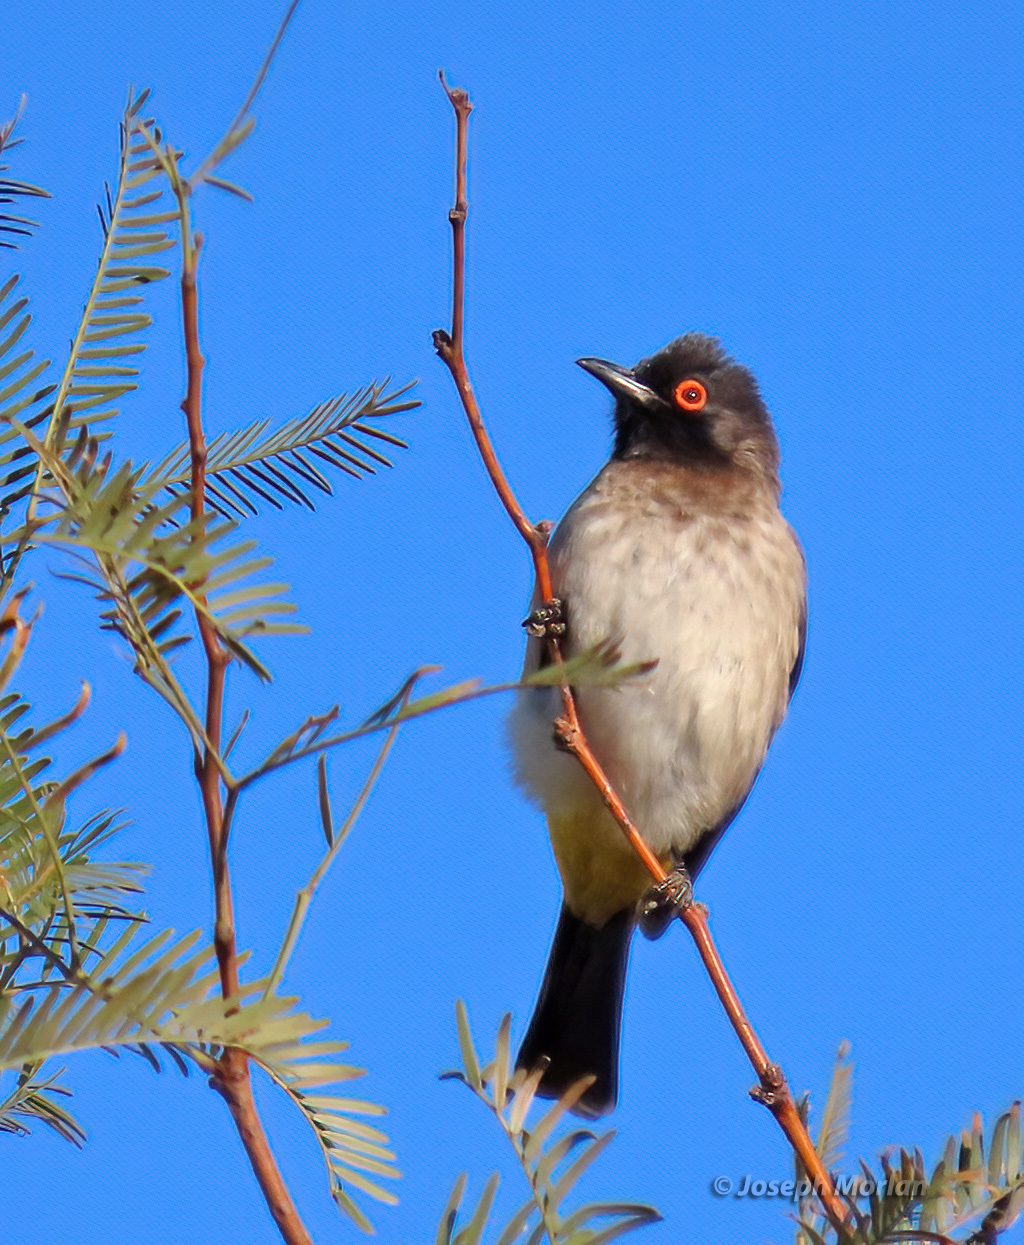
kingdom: Animalia
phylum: Chordata
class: Aves
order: Passeriformes
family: Pycnonotidae
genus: Pycnonotus
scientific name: Pycnonotus nigricans
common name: African red-eyed bulbul
